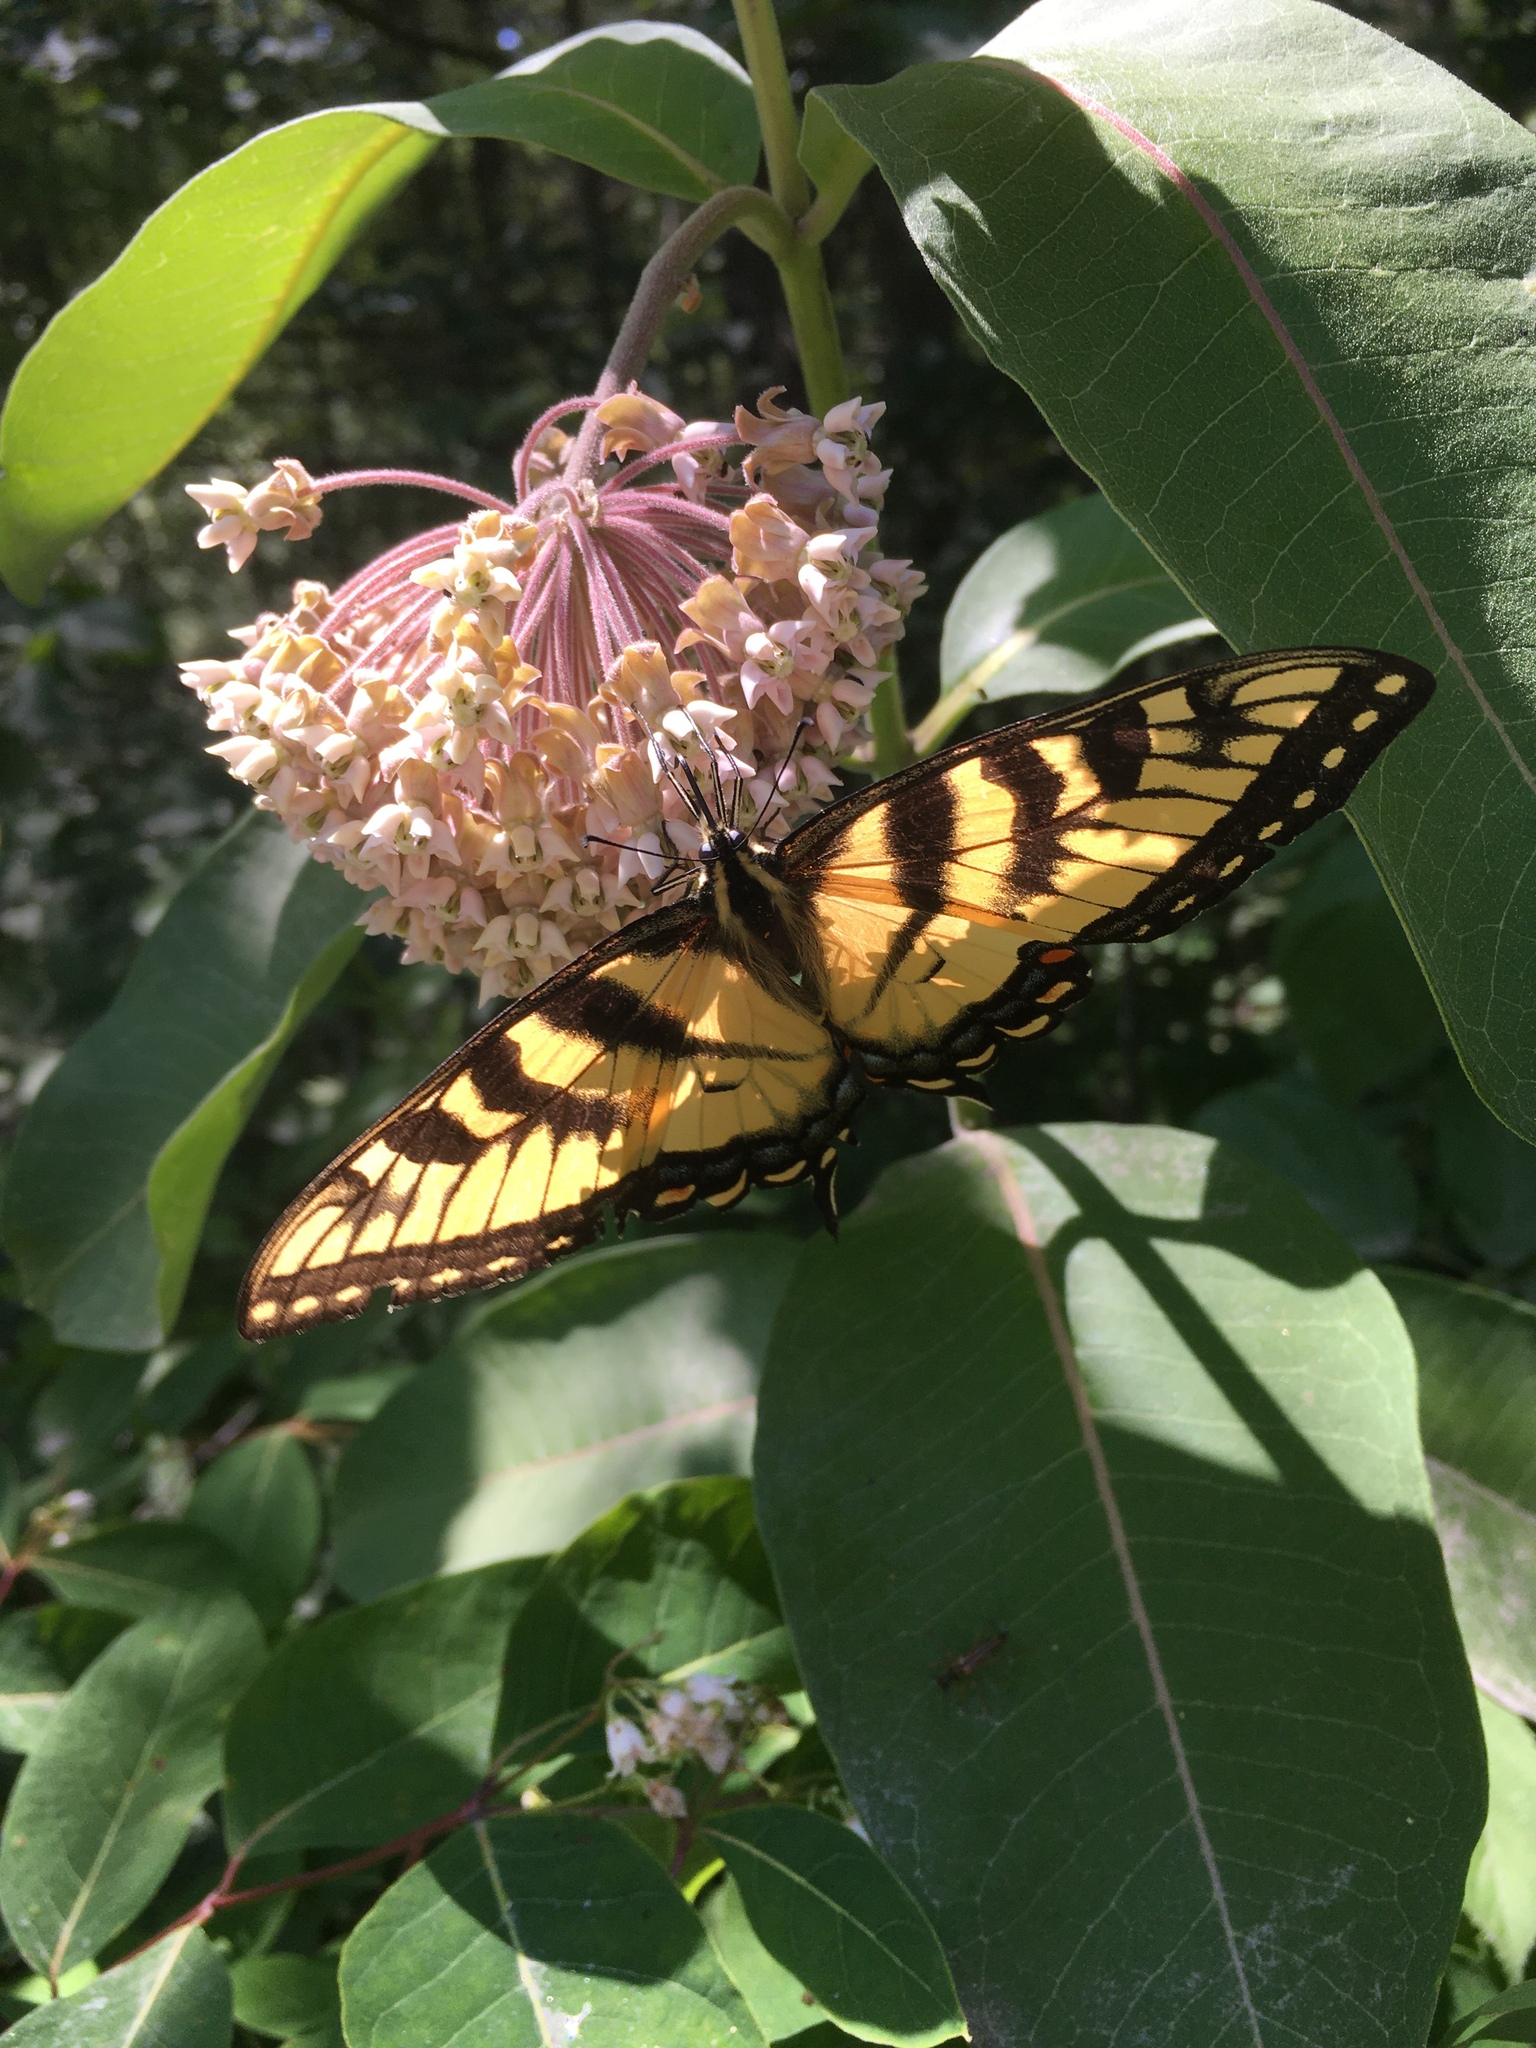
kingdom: Animalia
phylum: Arthropoda
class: Insecta
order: Lepidoptera
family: Papilionidae
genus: Papilio
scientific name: Papilio
